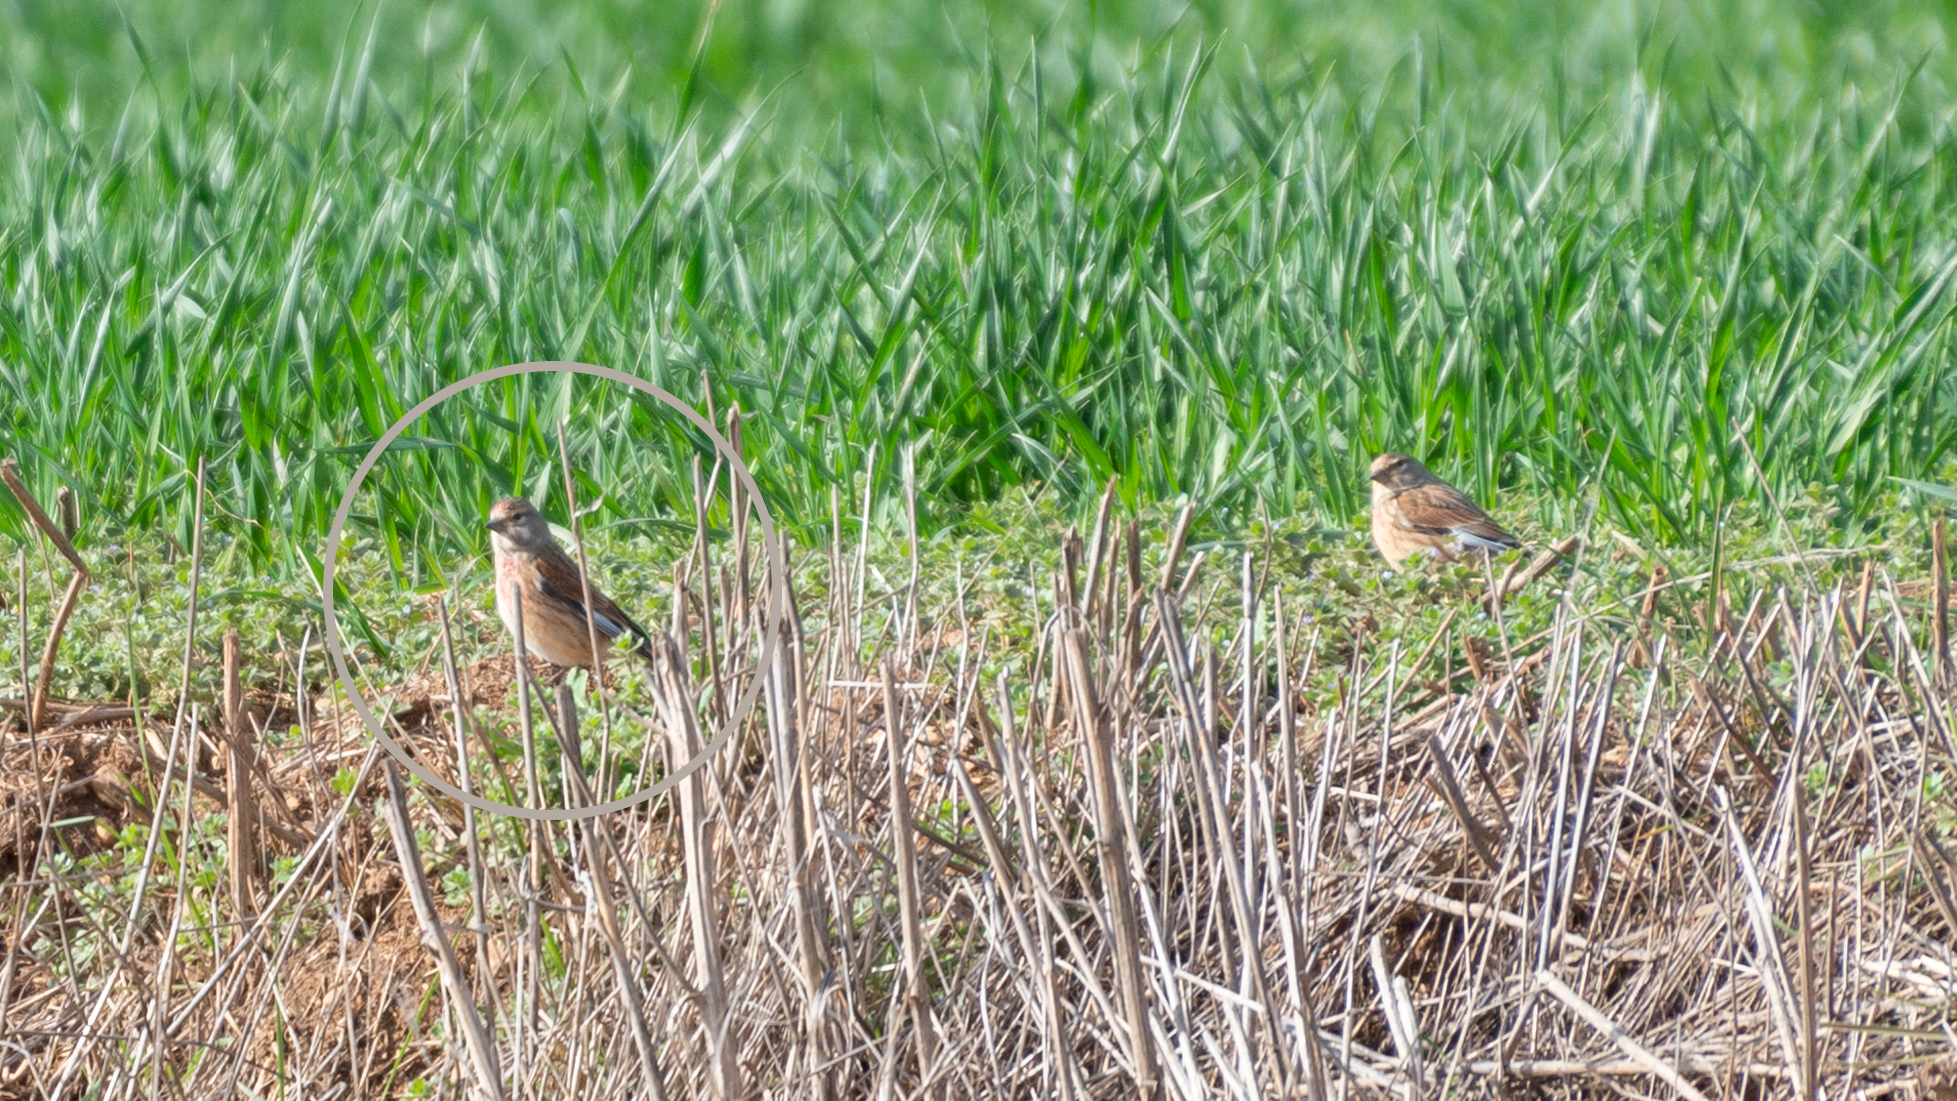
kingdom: Animalia
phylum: Chordata
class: Aves
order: Passeriformes
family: Fringillidae
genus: Linaria
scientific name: Linaria cannabina
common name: Common linnet
